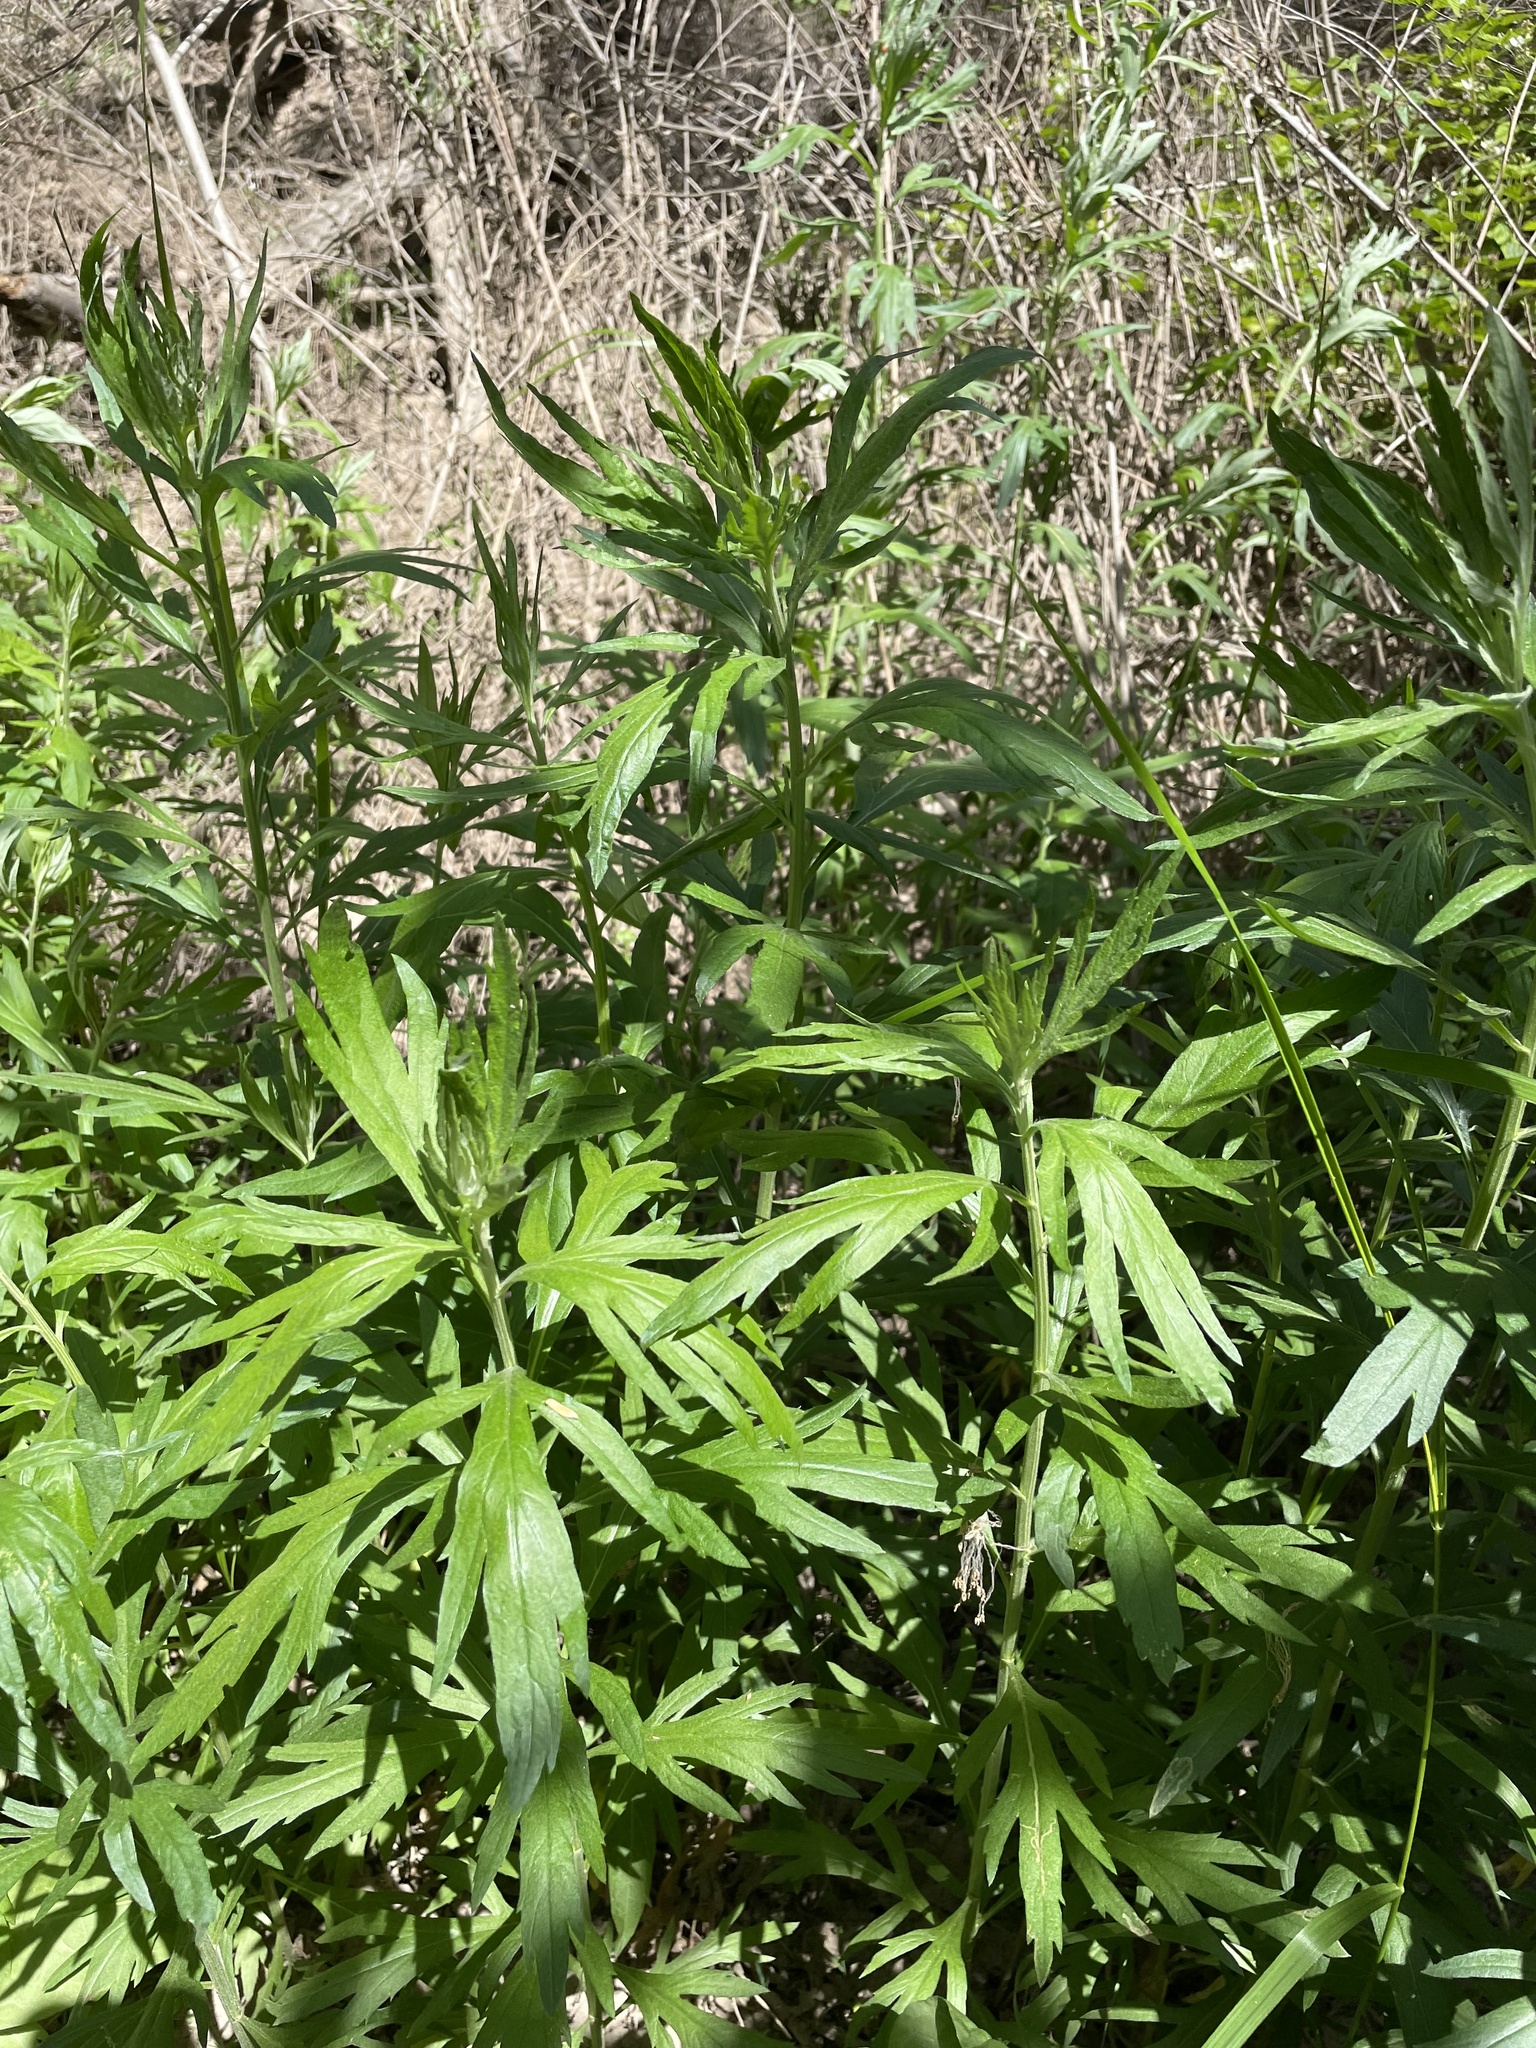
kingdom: Plantae
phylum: Tracheophyta
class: Magnoliopsida
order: Asterales
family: Asteraceae
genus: Artemisia
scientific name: Artemisia douglasiana
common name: Northwest mugwort
